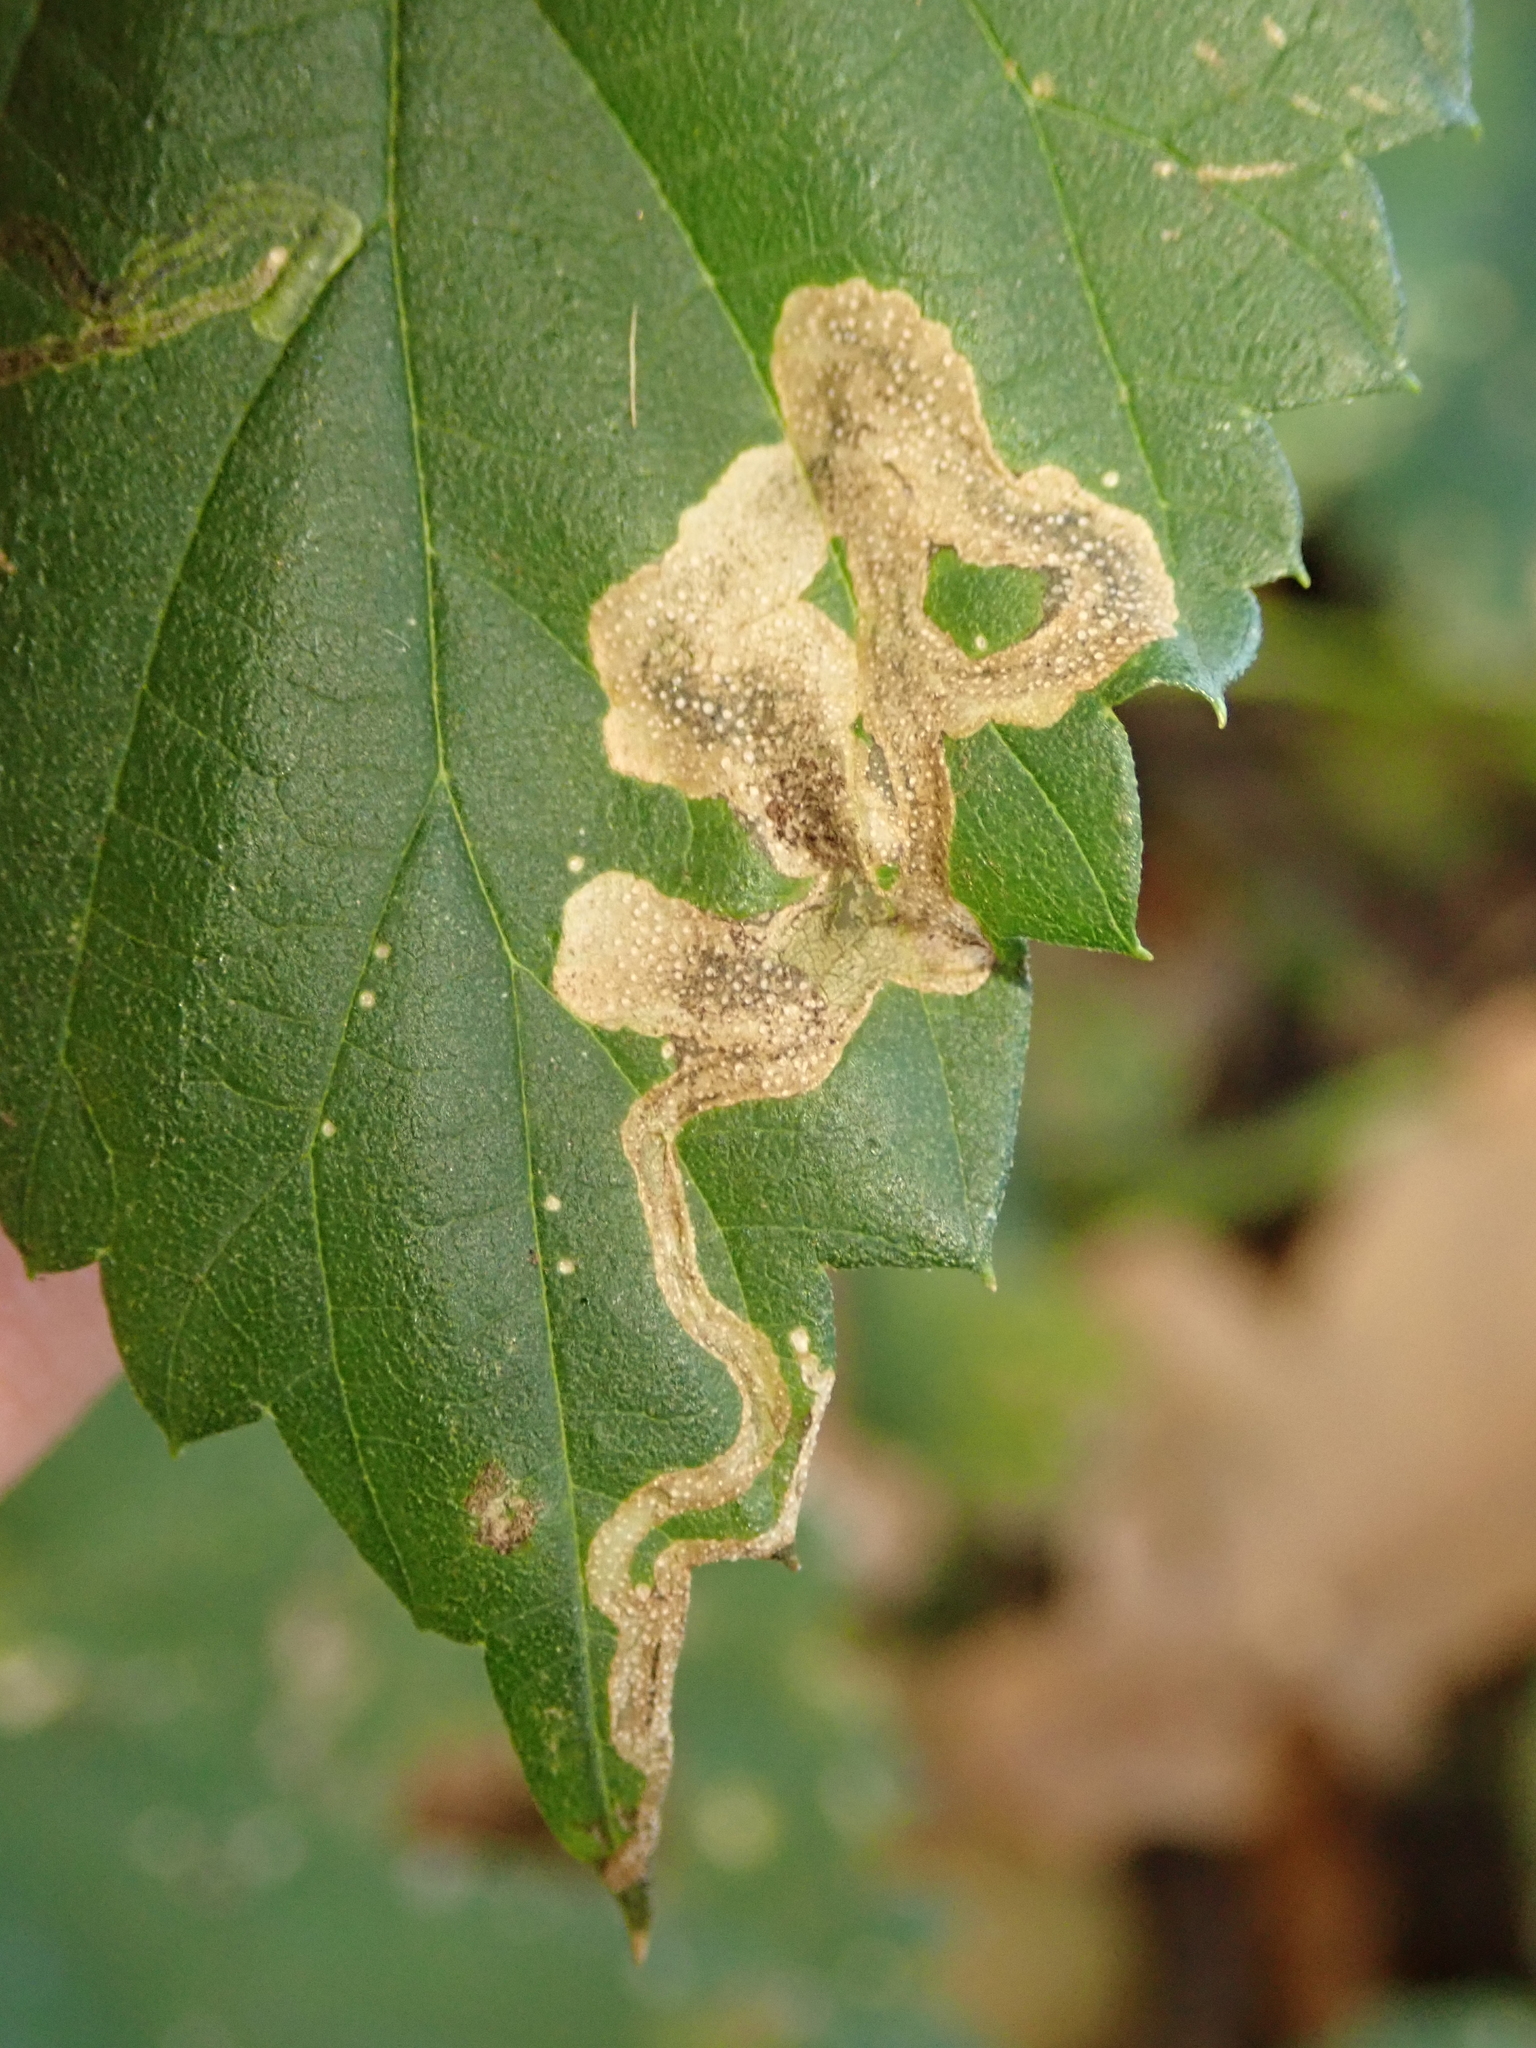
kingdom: Animalia
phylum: Arthropoda
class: Insecta
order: Diptera
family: Agromyzidae
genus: Agromyza
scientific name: Agromyza flaviceps
